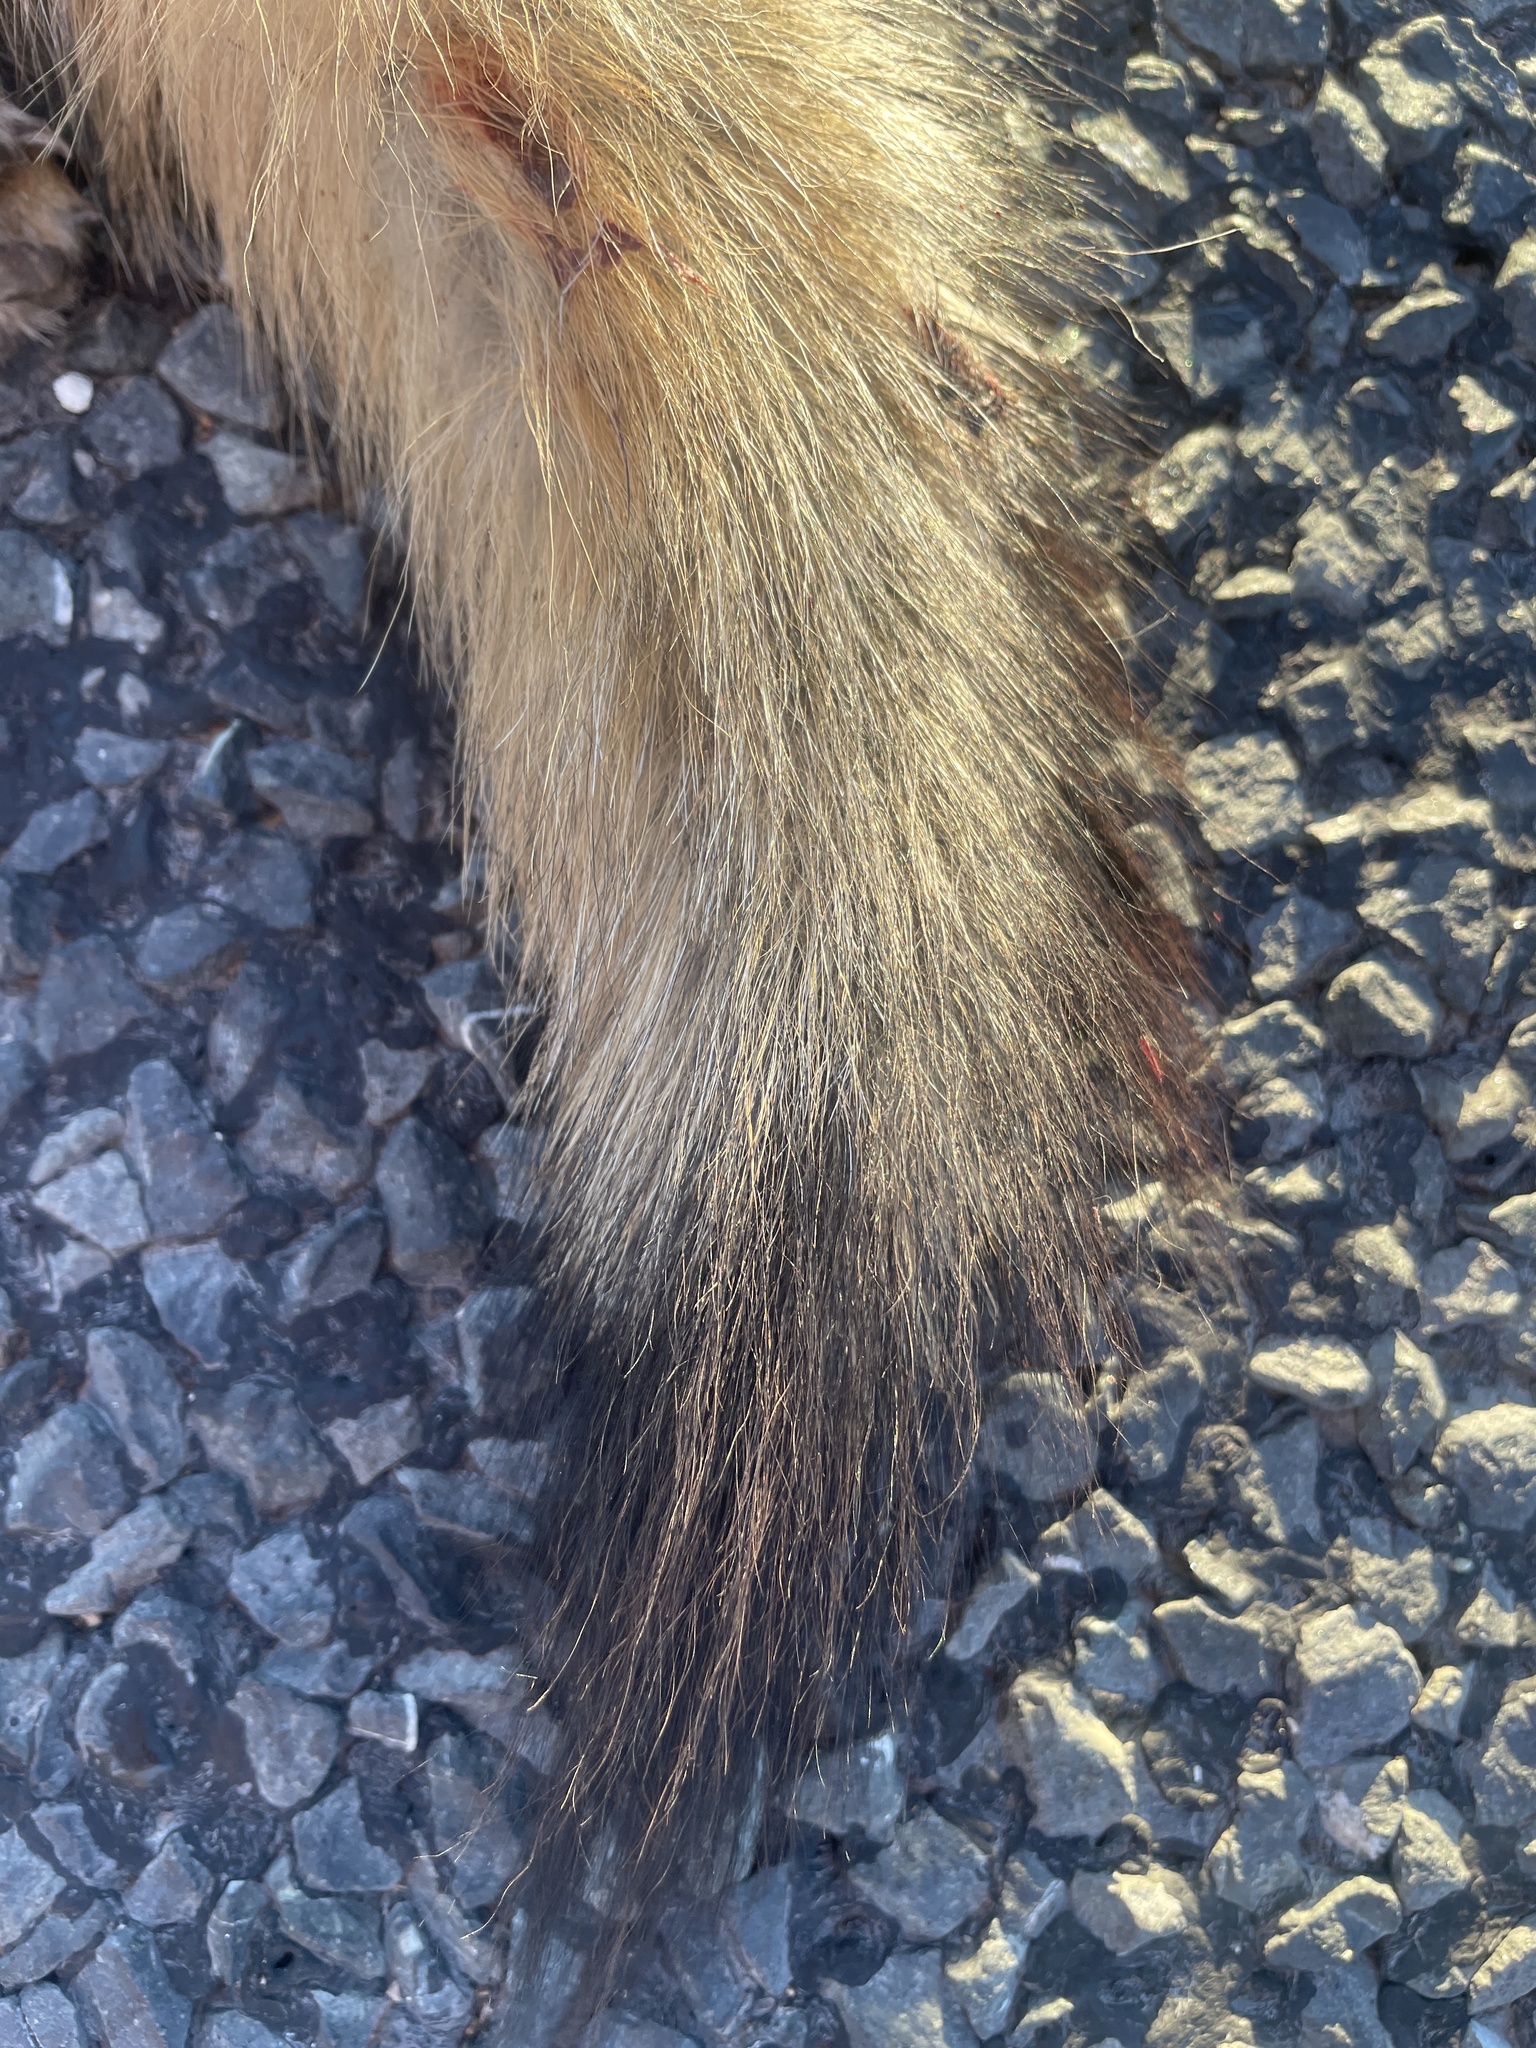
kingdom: Animalia
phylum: Chordata
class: Mammalia
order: Carnivora
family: Canidae
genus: Urocyon
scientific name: Urocyon cinereoargenteus
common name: Gray fox
